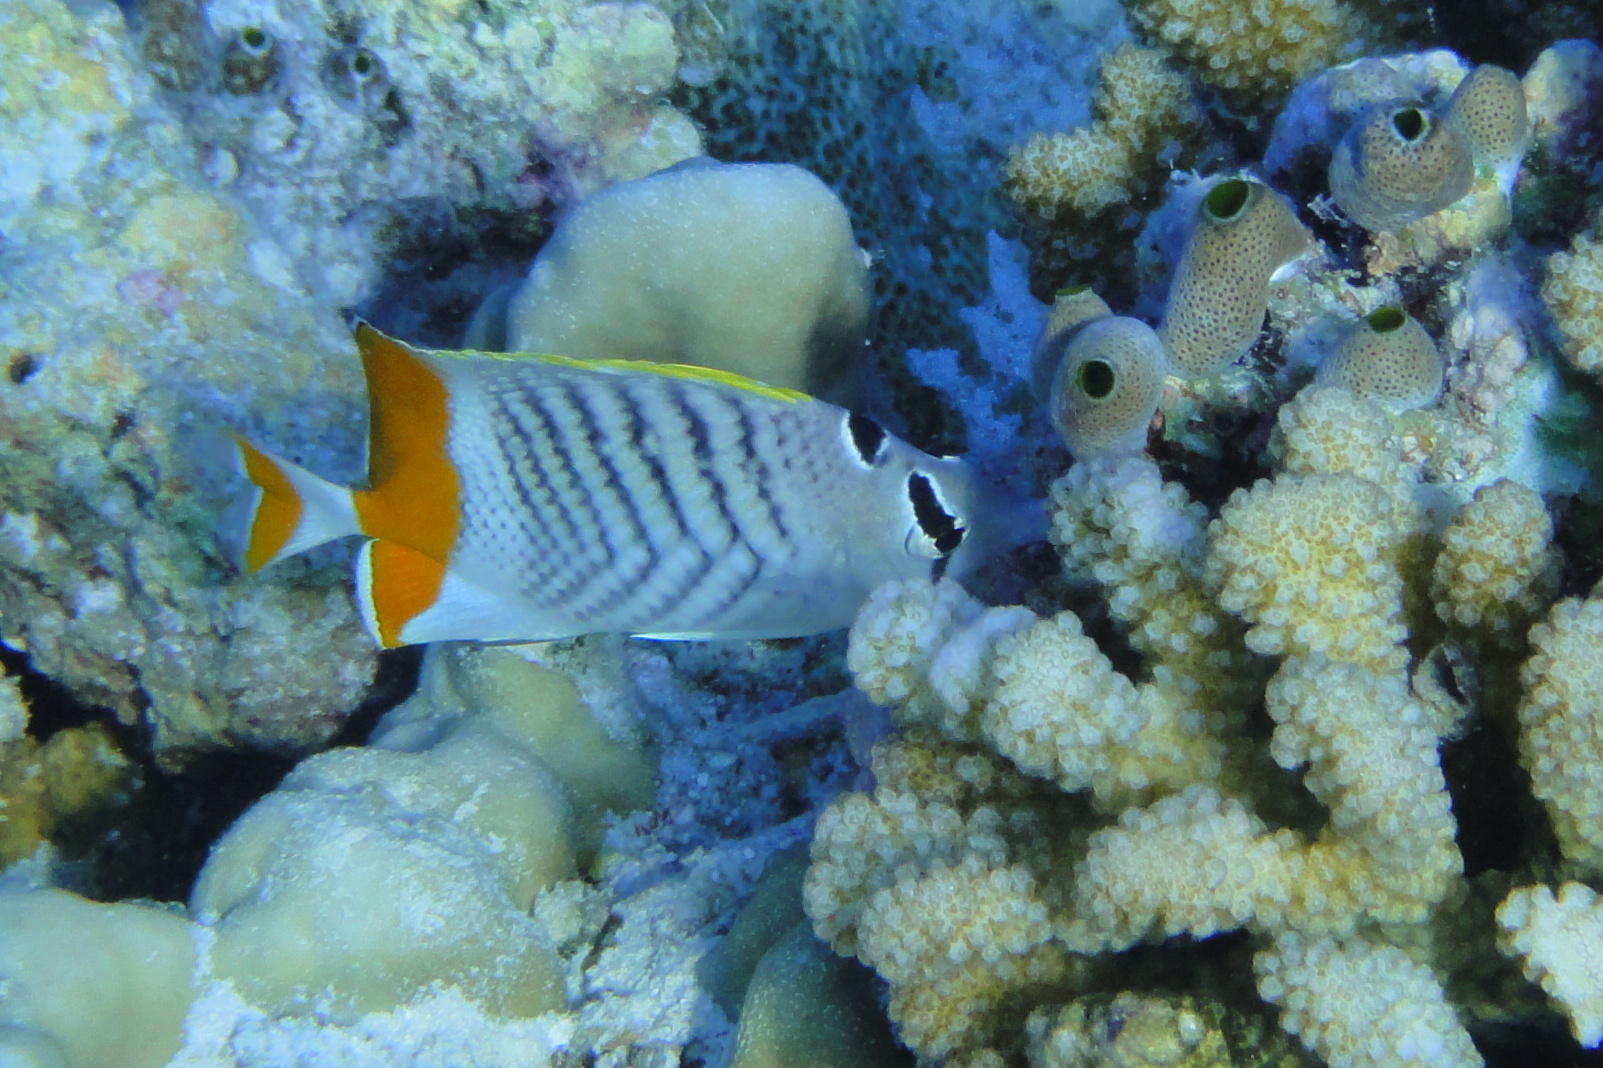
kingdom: Animalia
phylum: Chordata
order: Perciformes
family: Chaetodontidae
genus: Chaetodon
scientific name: Chaetodon madagaskariensis
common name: Madagascar butterflyfish
